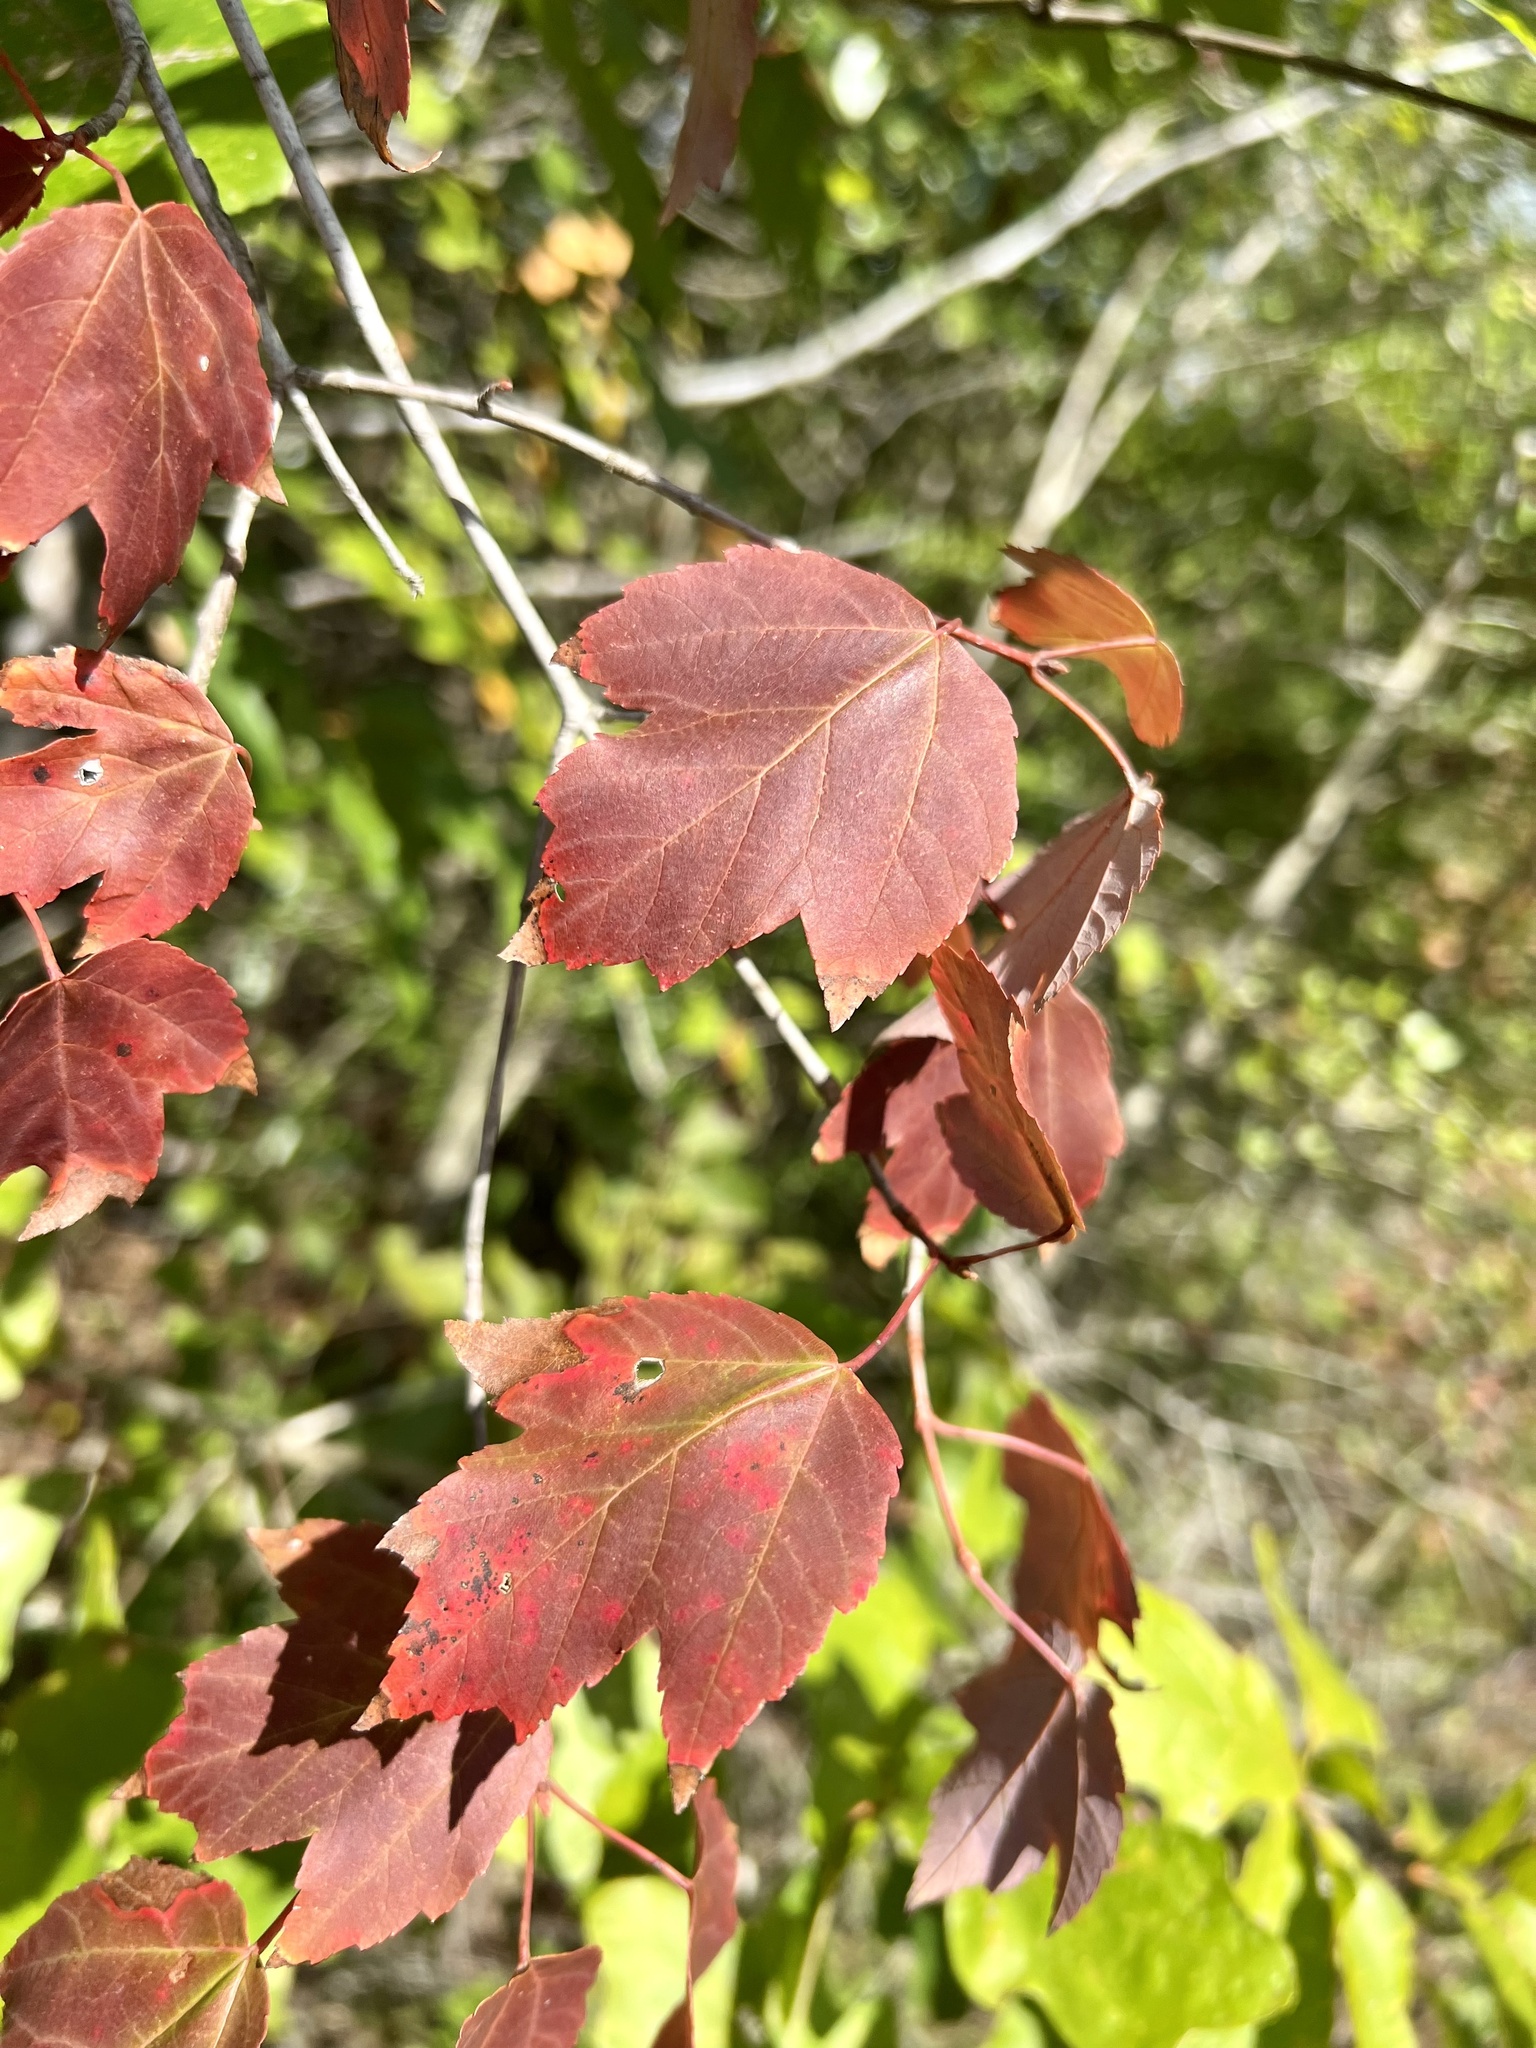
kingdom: Plantae
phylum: Tracheophyta
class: Magnoliopsida
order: Sapindales
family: Sapindaceae
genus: Acer
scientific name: Acer rubrum
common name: Red maple
